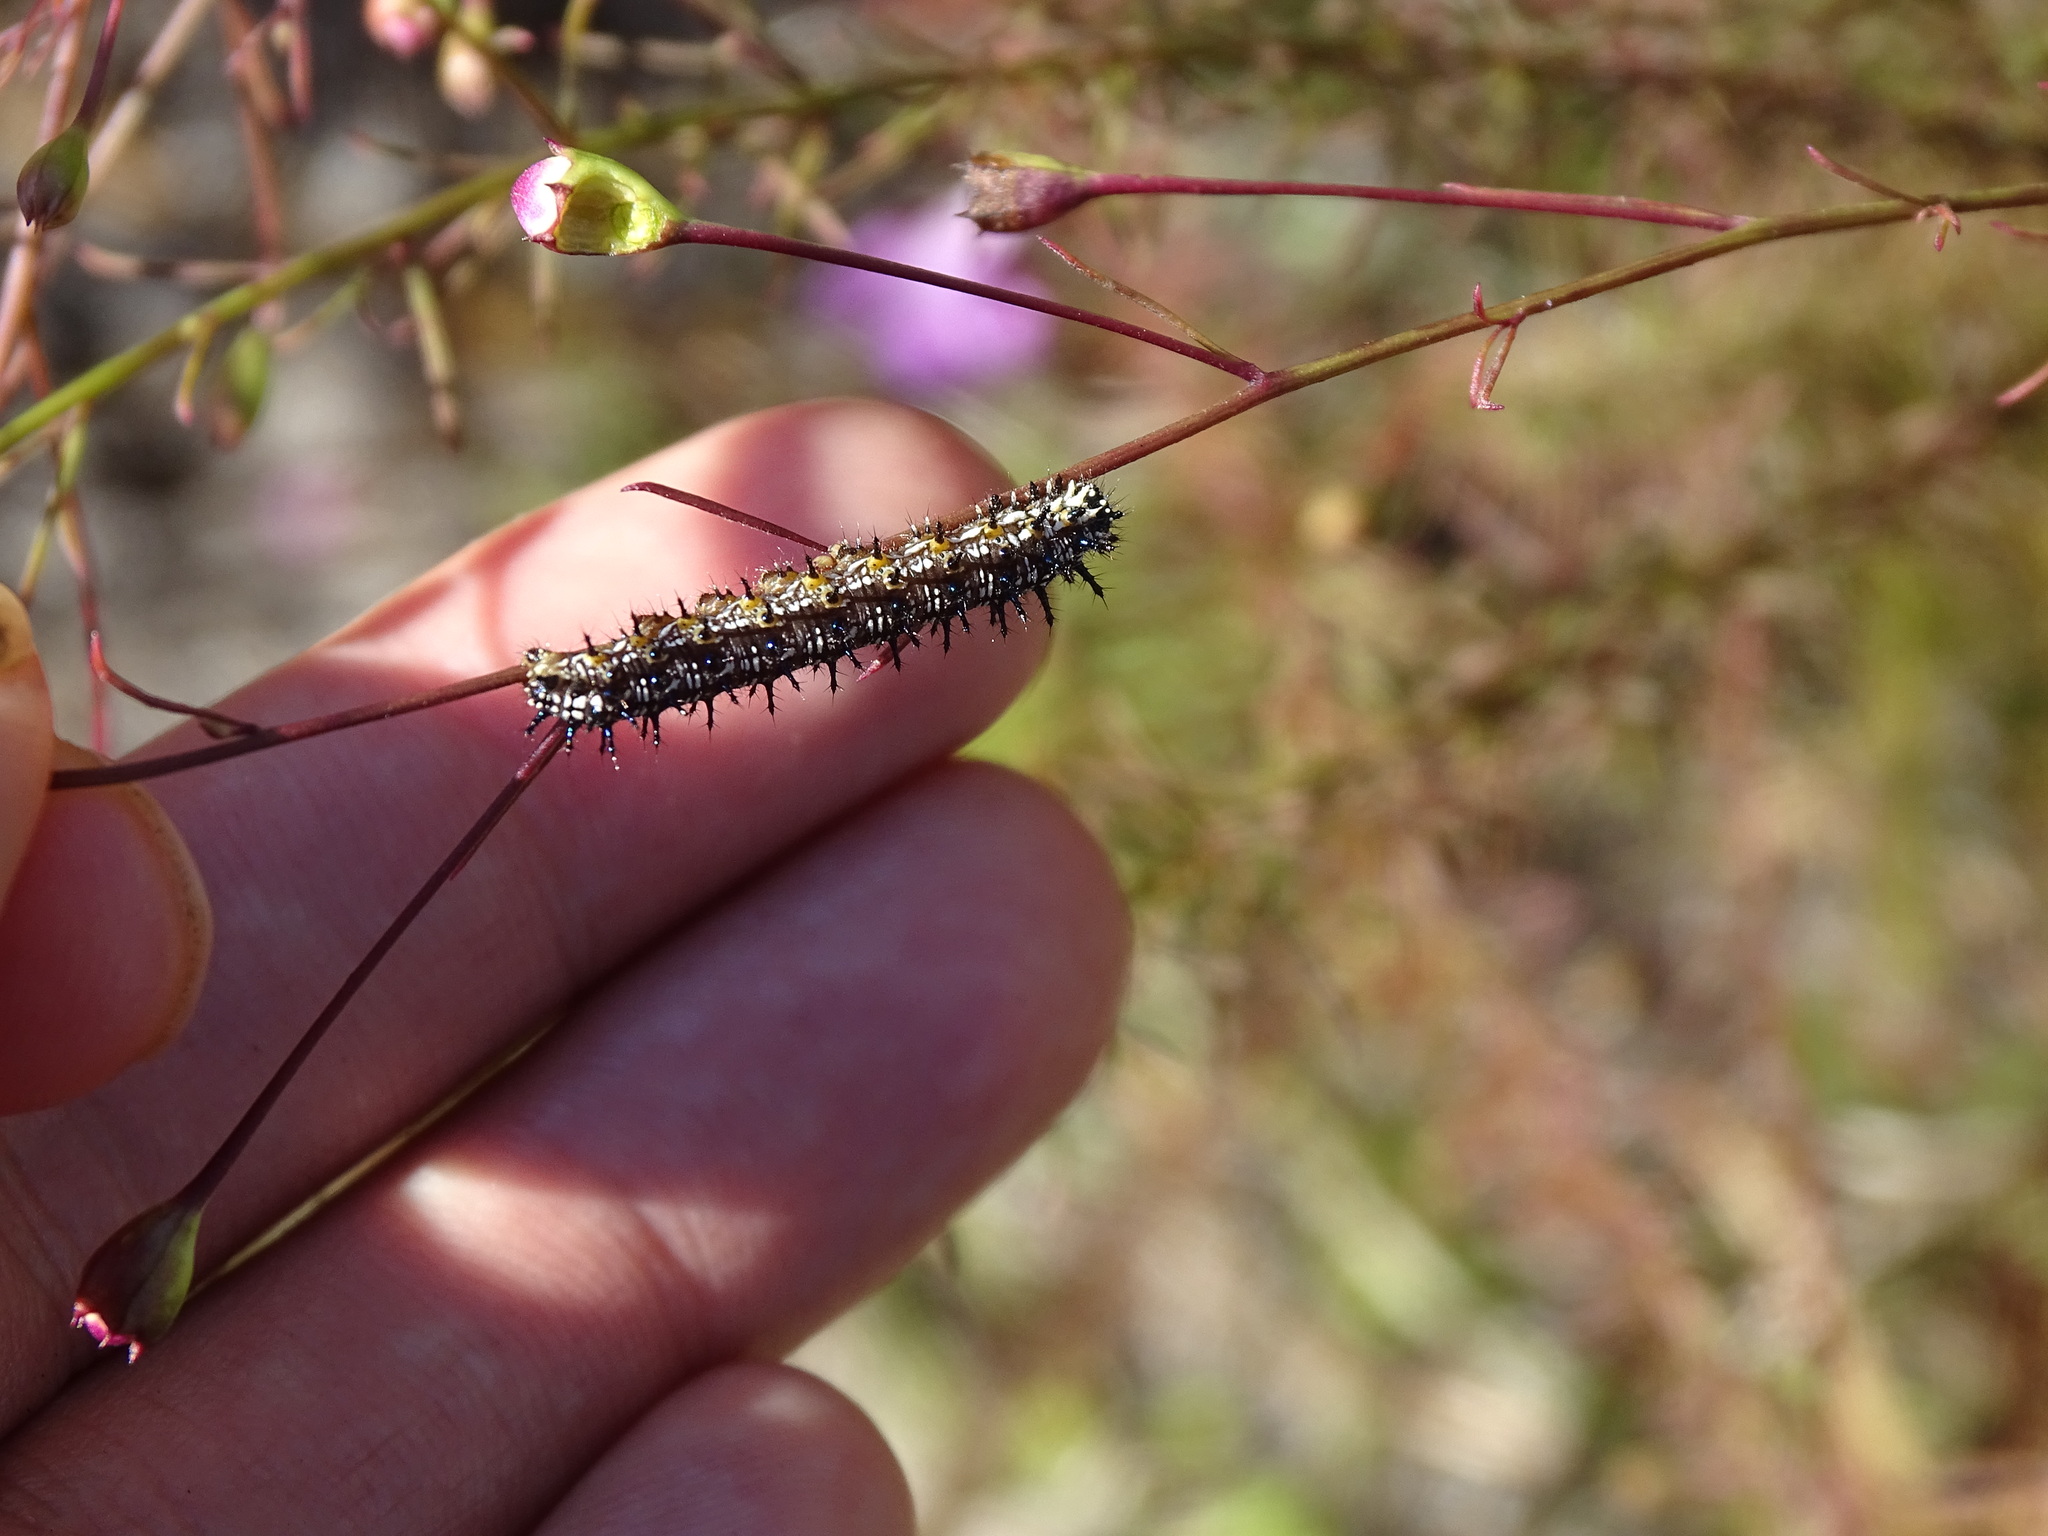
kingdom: Animalia
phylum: Arthropoda
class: Insecta
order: Lepidoptera
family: Nymphalidae
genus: Junonia
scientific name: Junonia coenia
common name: Common buckeye
